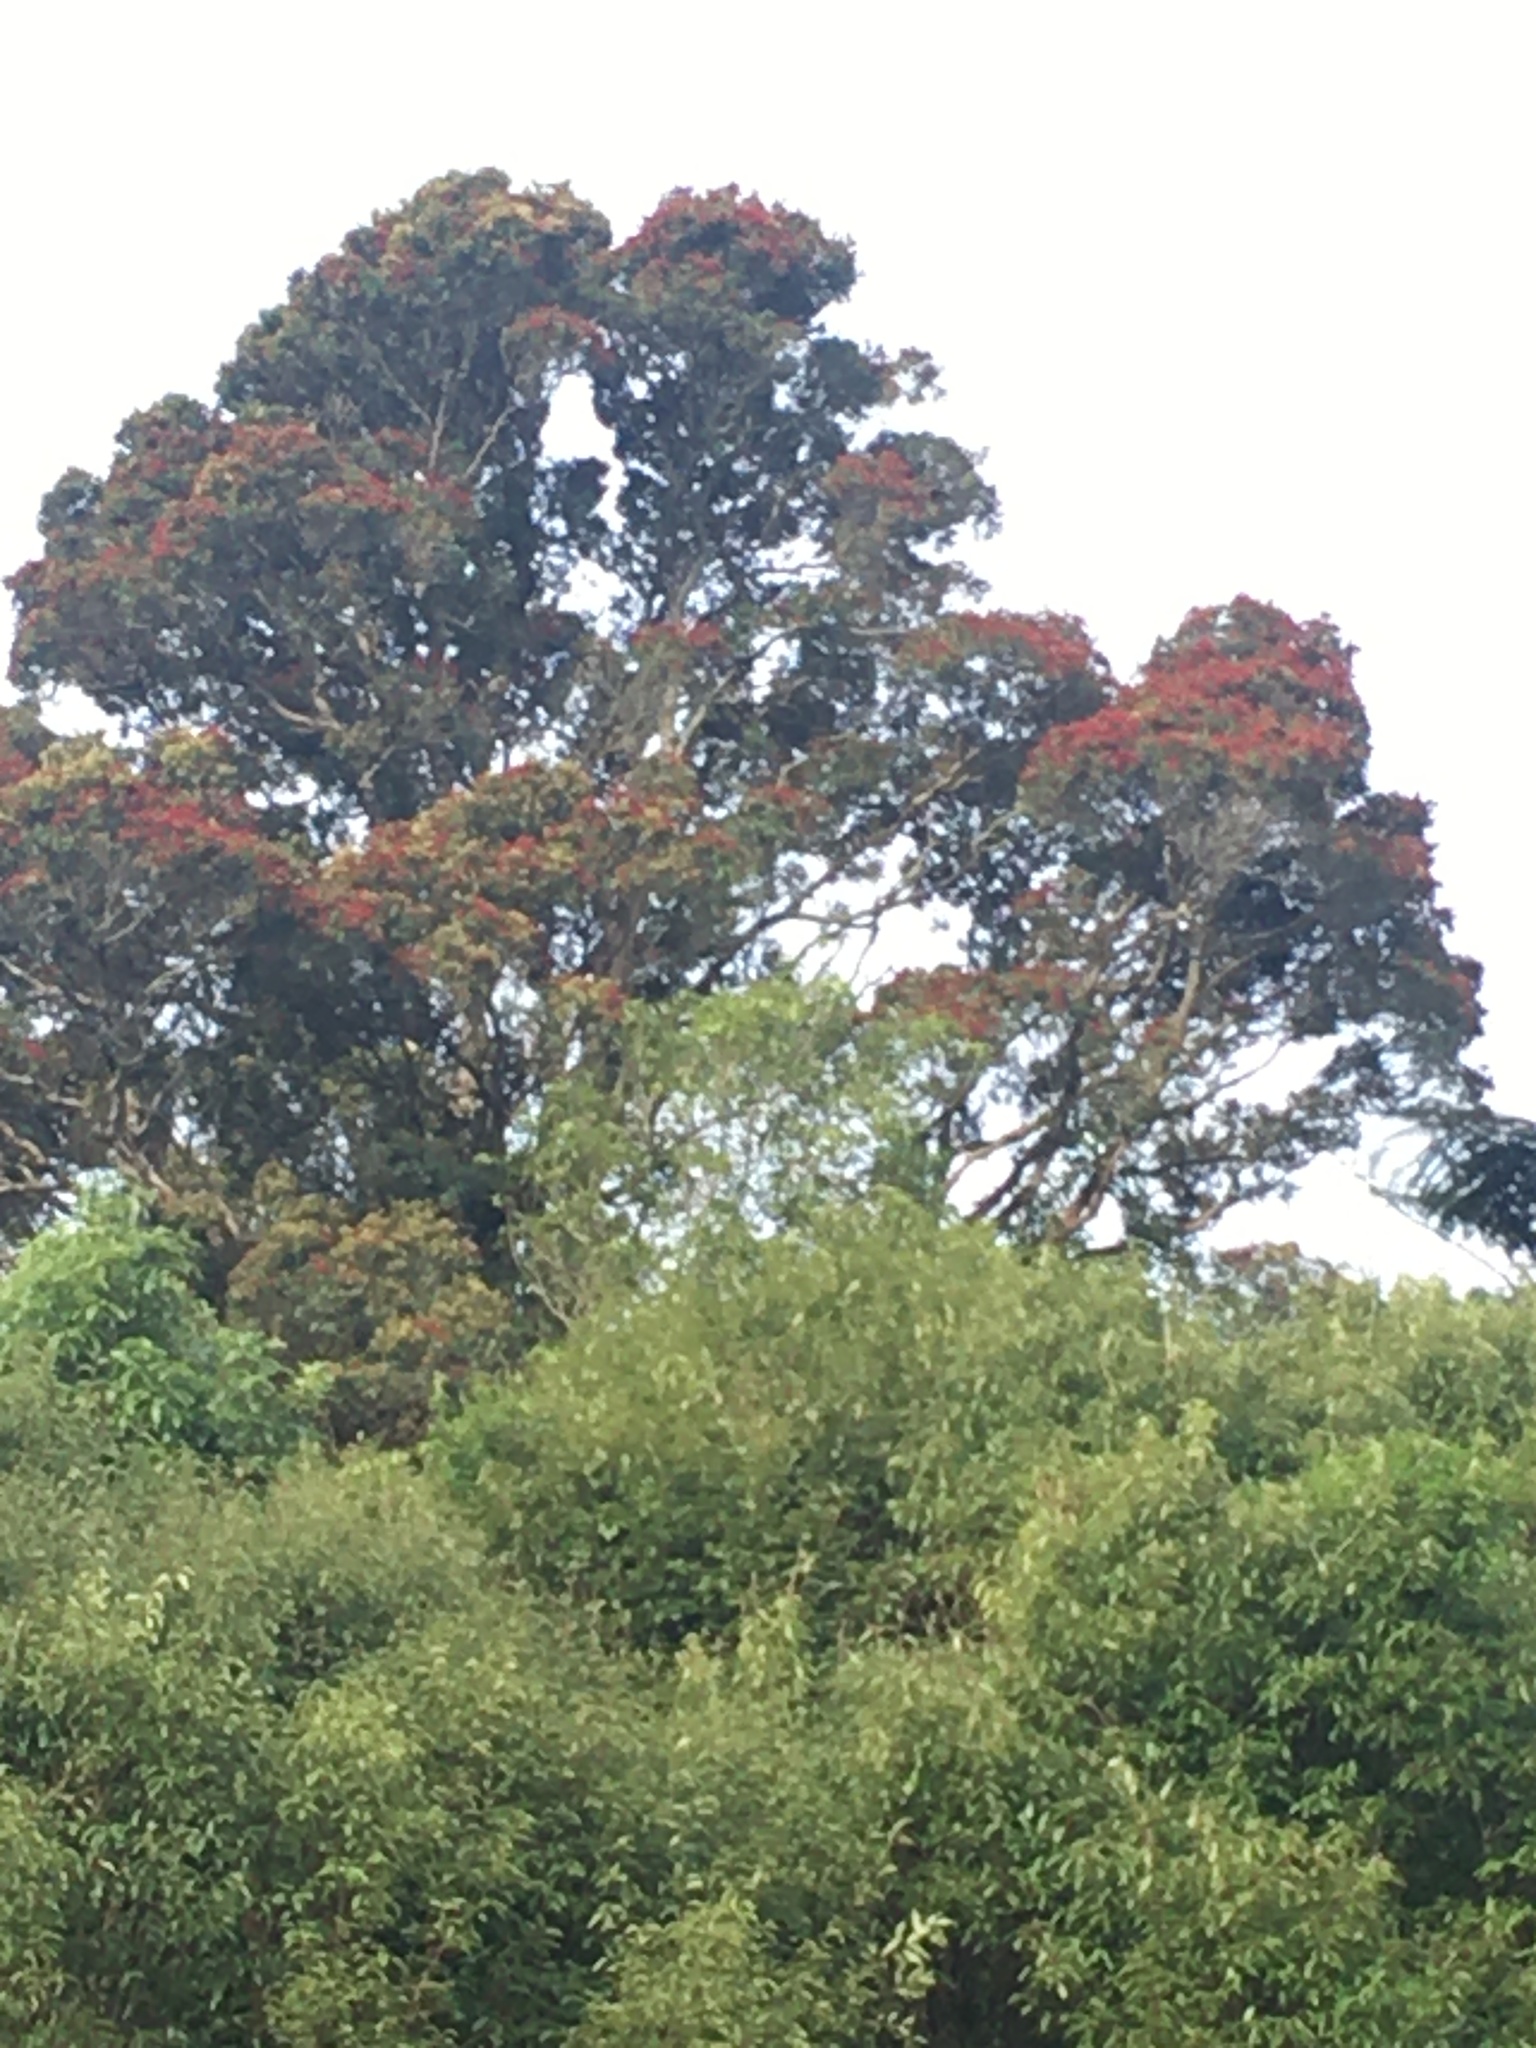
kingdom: Plantae
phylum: Tracheophyta
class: Magnoliopsida
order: Myrtales
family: Myrtaceae
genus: Metrosideros
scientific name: Metrosideros robusta
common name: Northern rata
